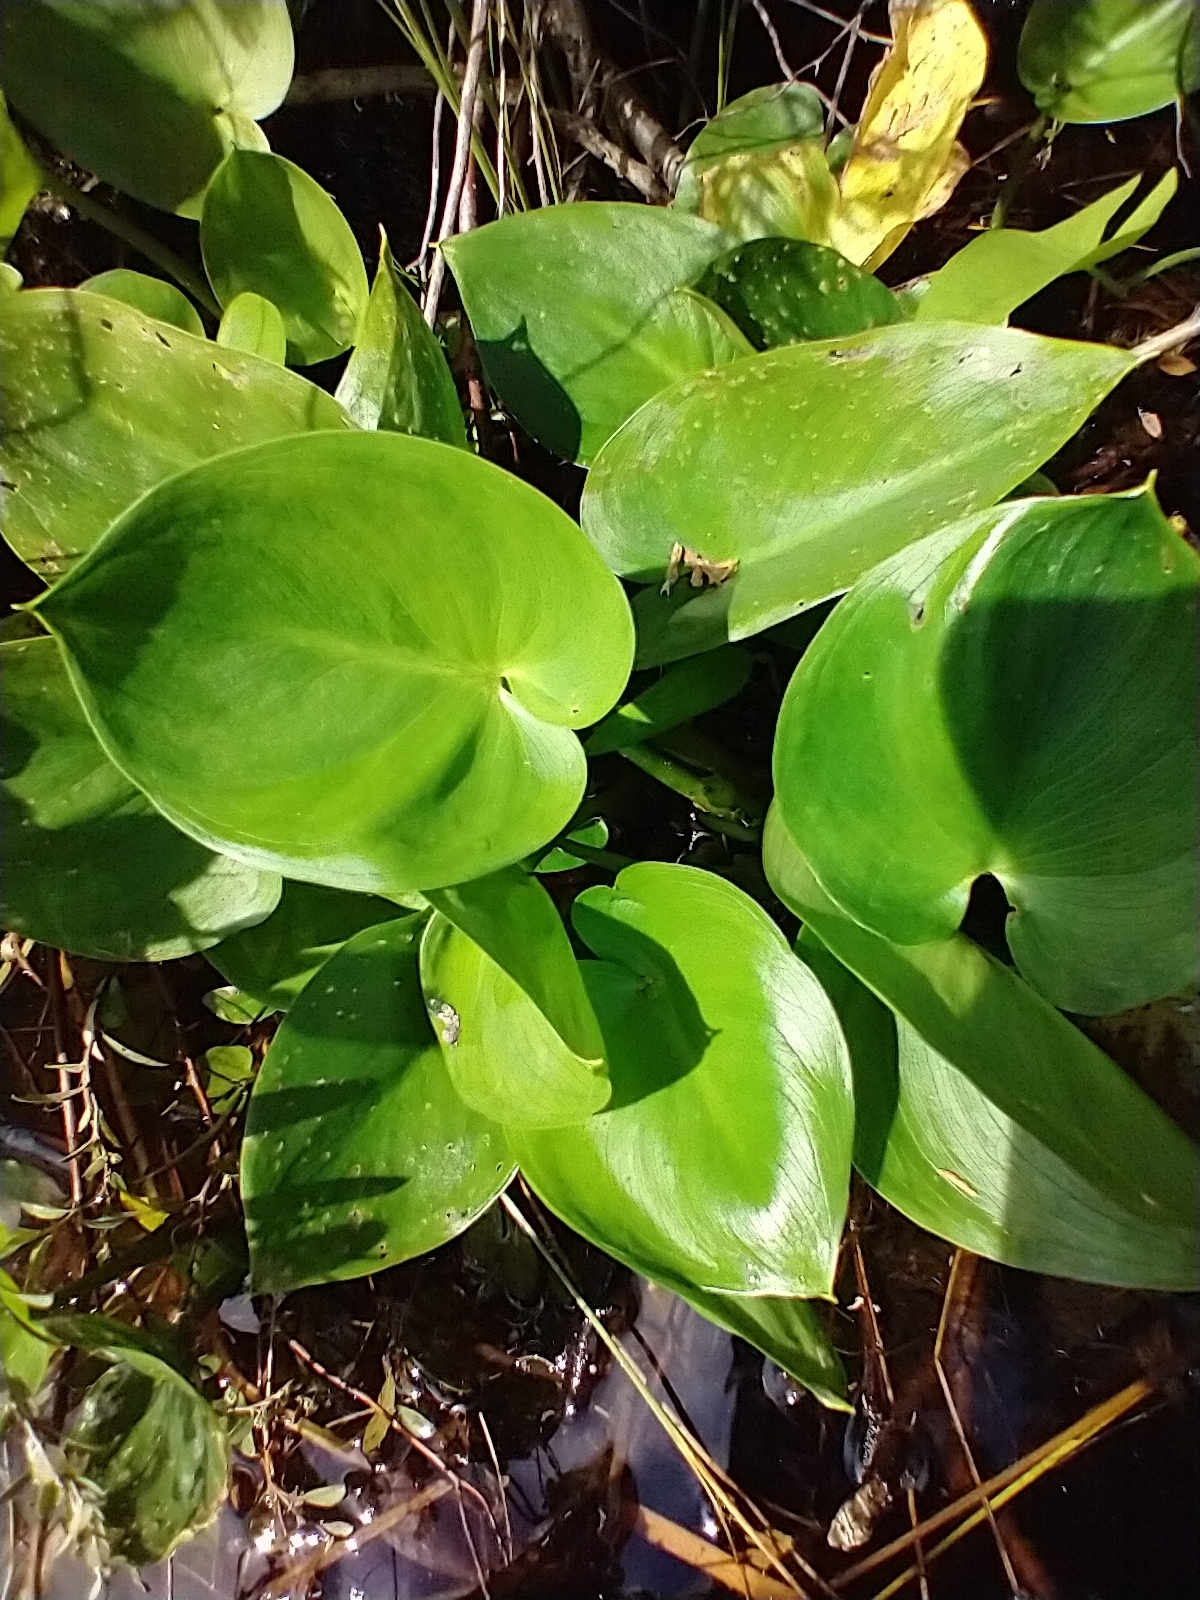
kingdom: Plantae
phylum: Tracheophyta
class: Liliopsida
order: Alismatales
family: Araceae
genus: Calla
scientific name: Calla palustris
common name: Bog arum
